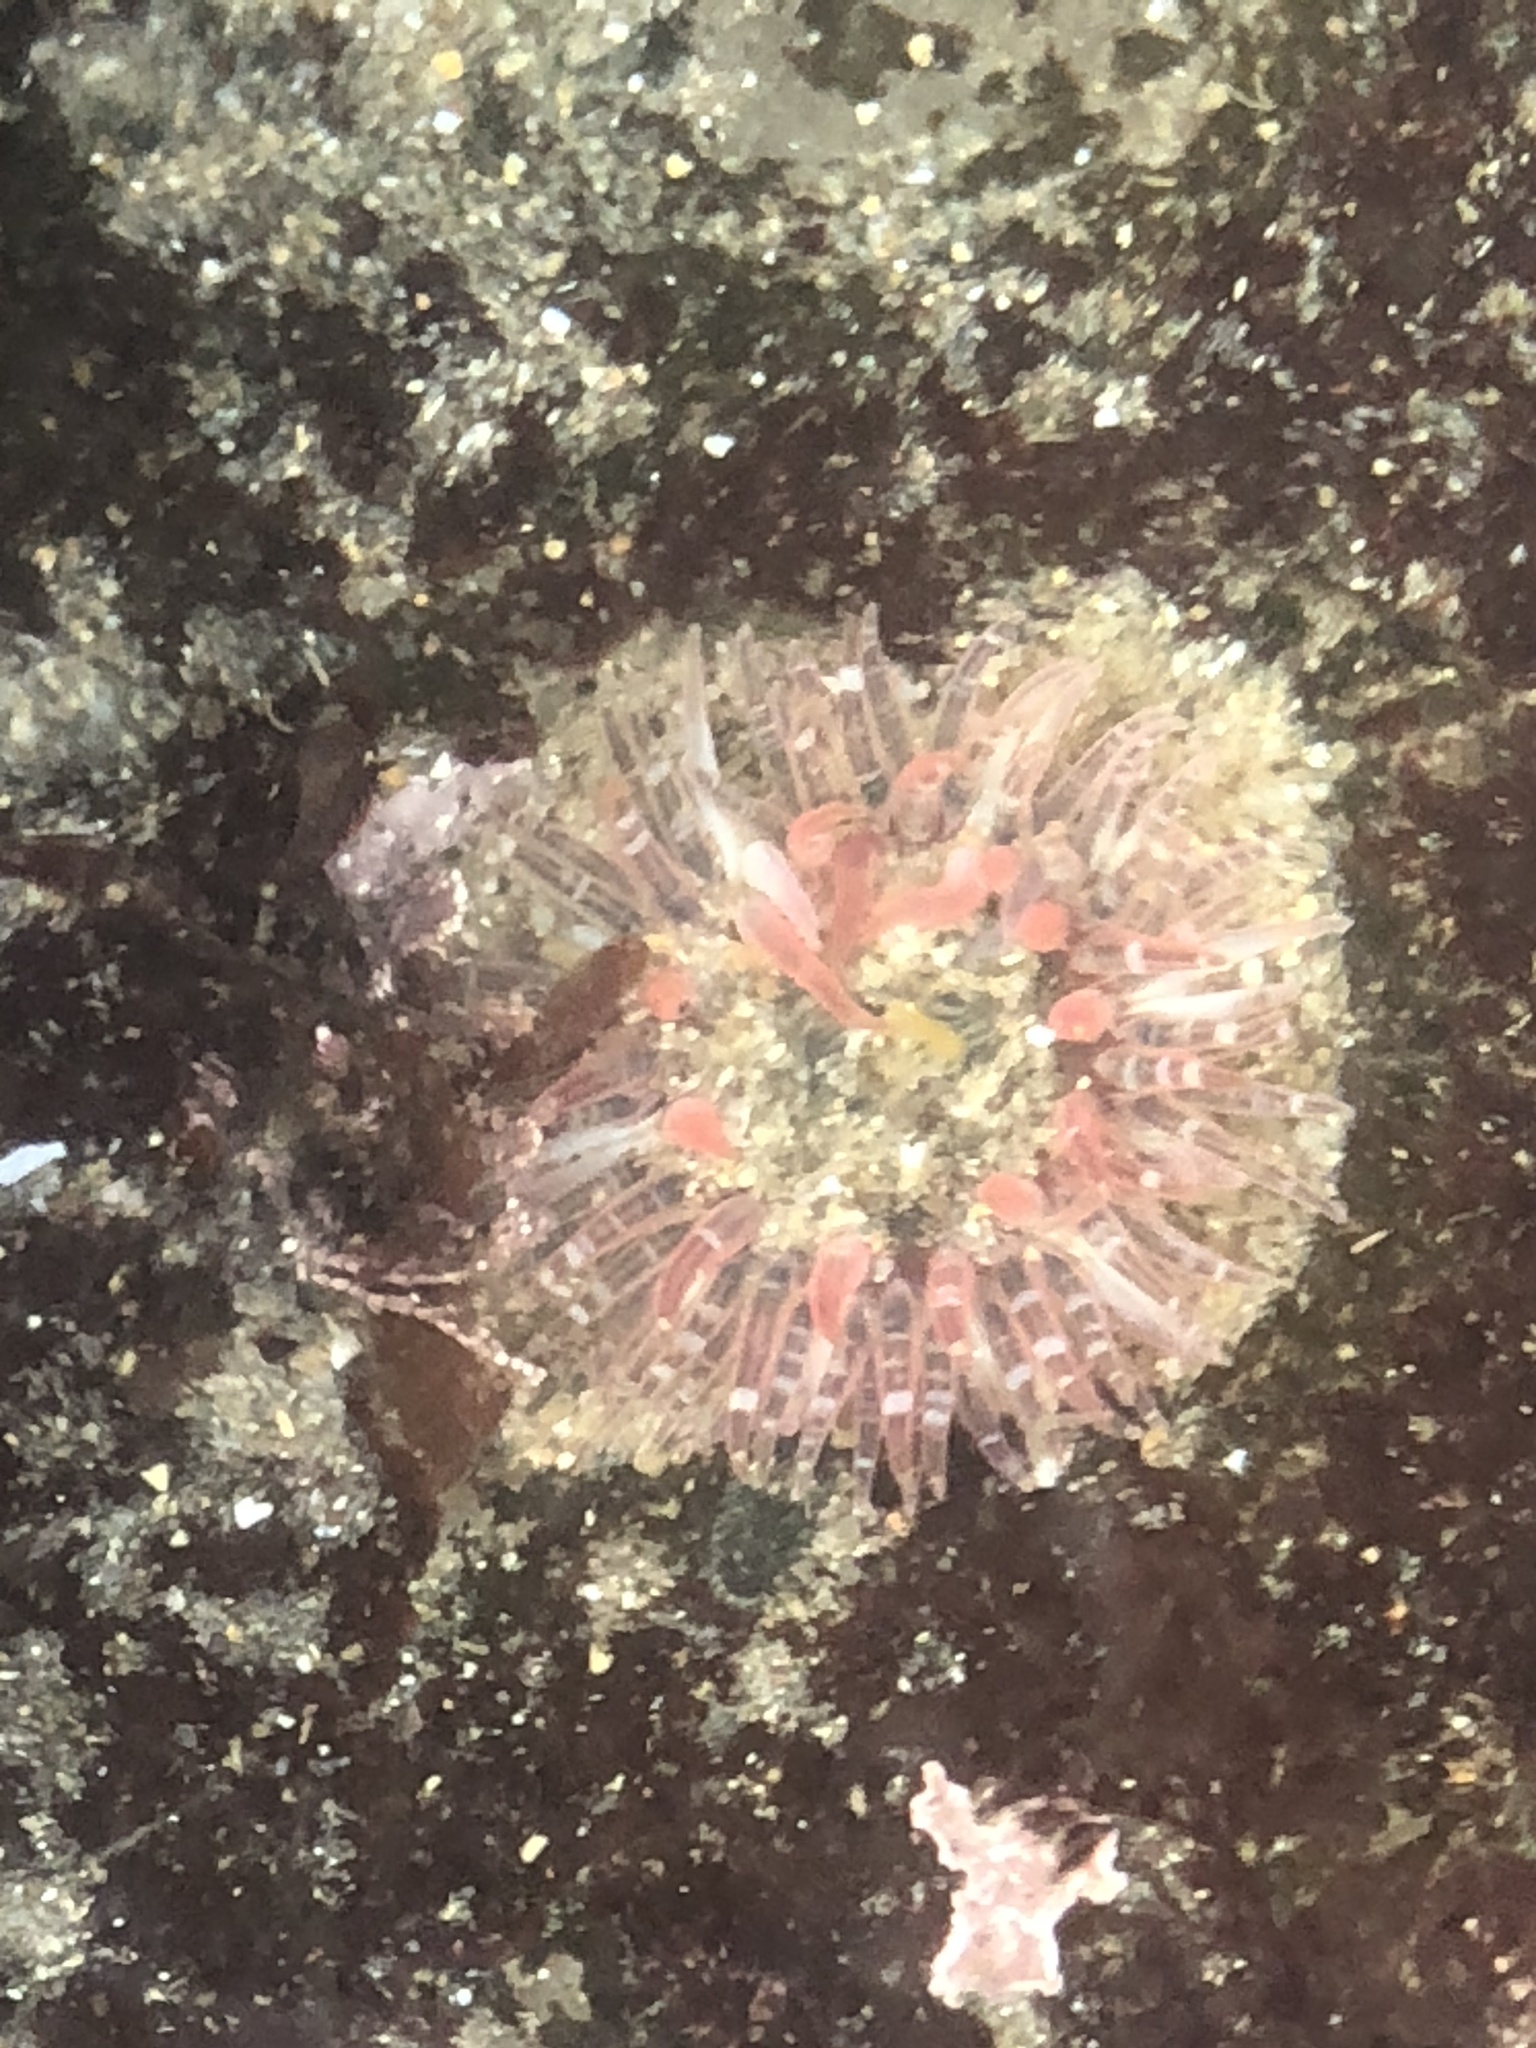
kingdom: Animalia
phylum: Cnidaria
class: Anthozoa
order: Actiniaria
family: Actiniidae
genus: Anthopleura
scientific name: Anthopleura artemisia
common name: Buried sea anemone
